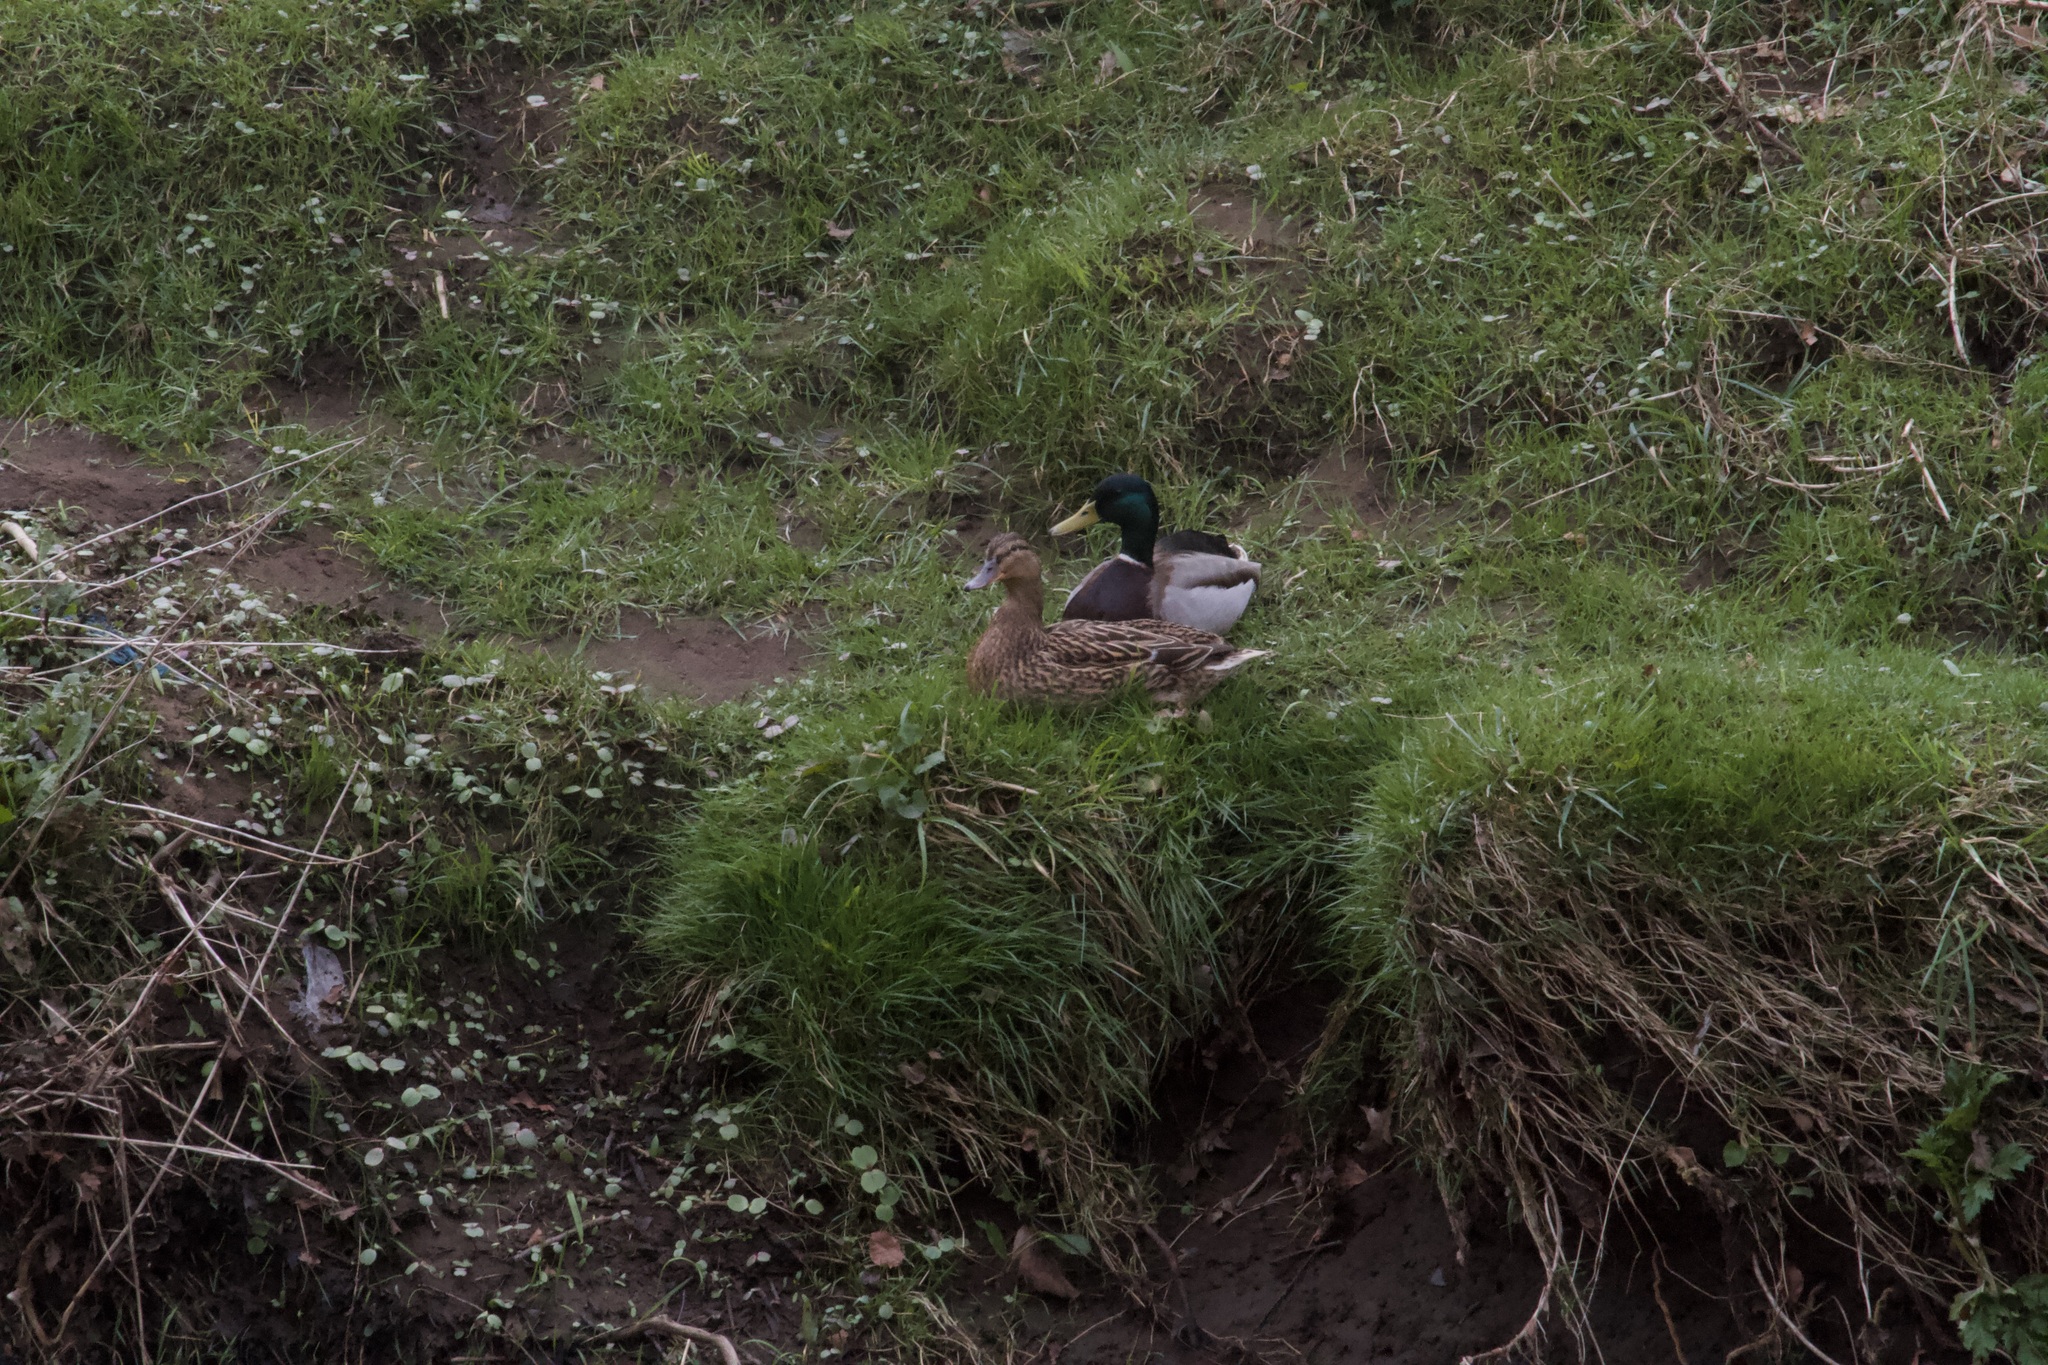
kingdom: Animalia
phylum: Chordata
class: Aves
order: Anseriformes
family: Anatidae
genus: Anas
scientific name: Anas platyrhynchos
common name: Mallard
